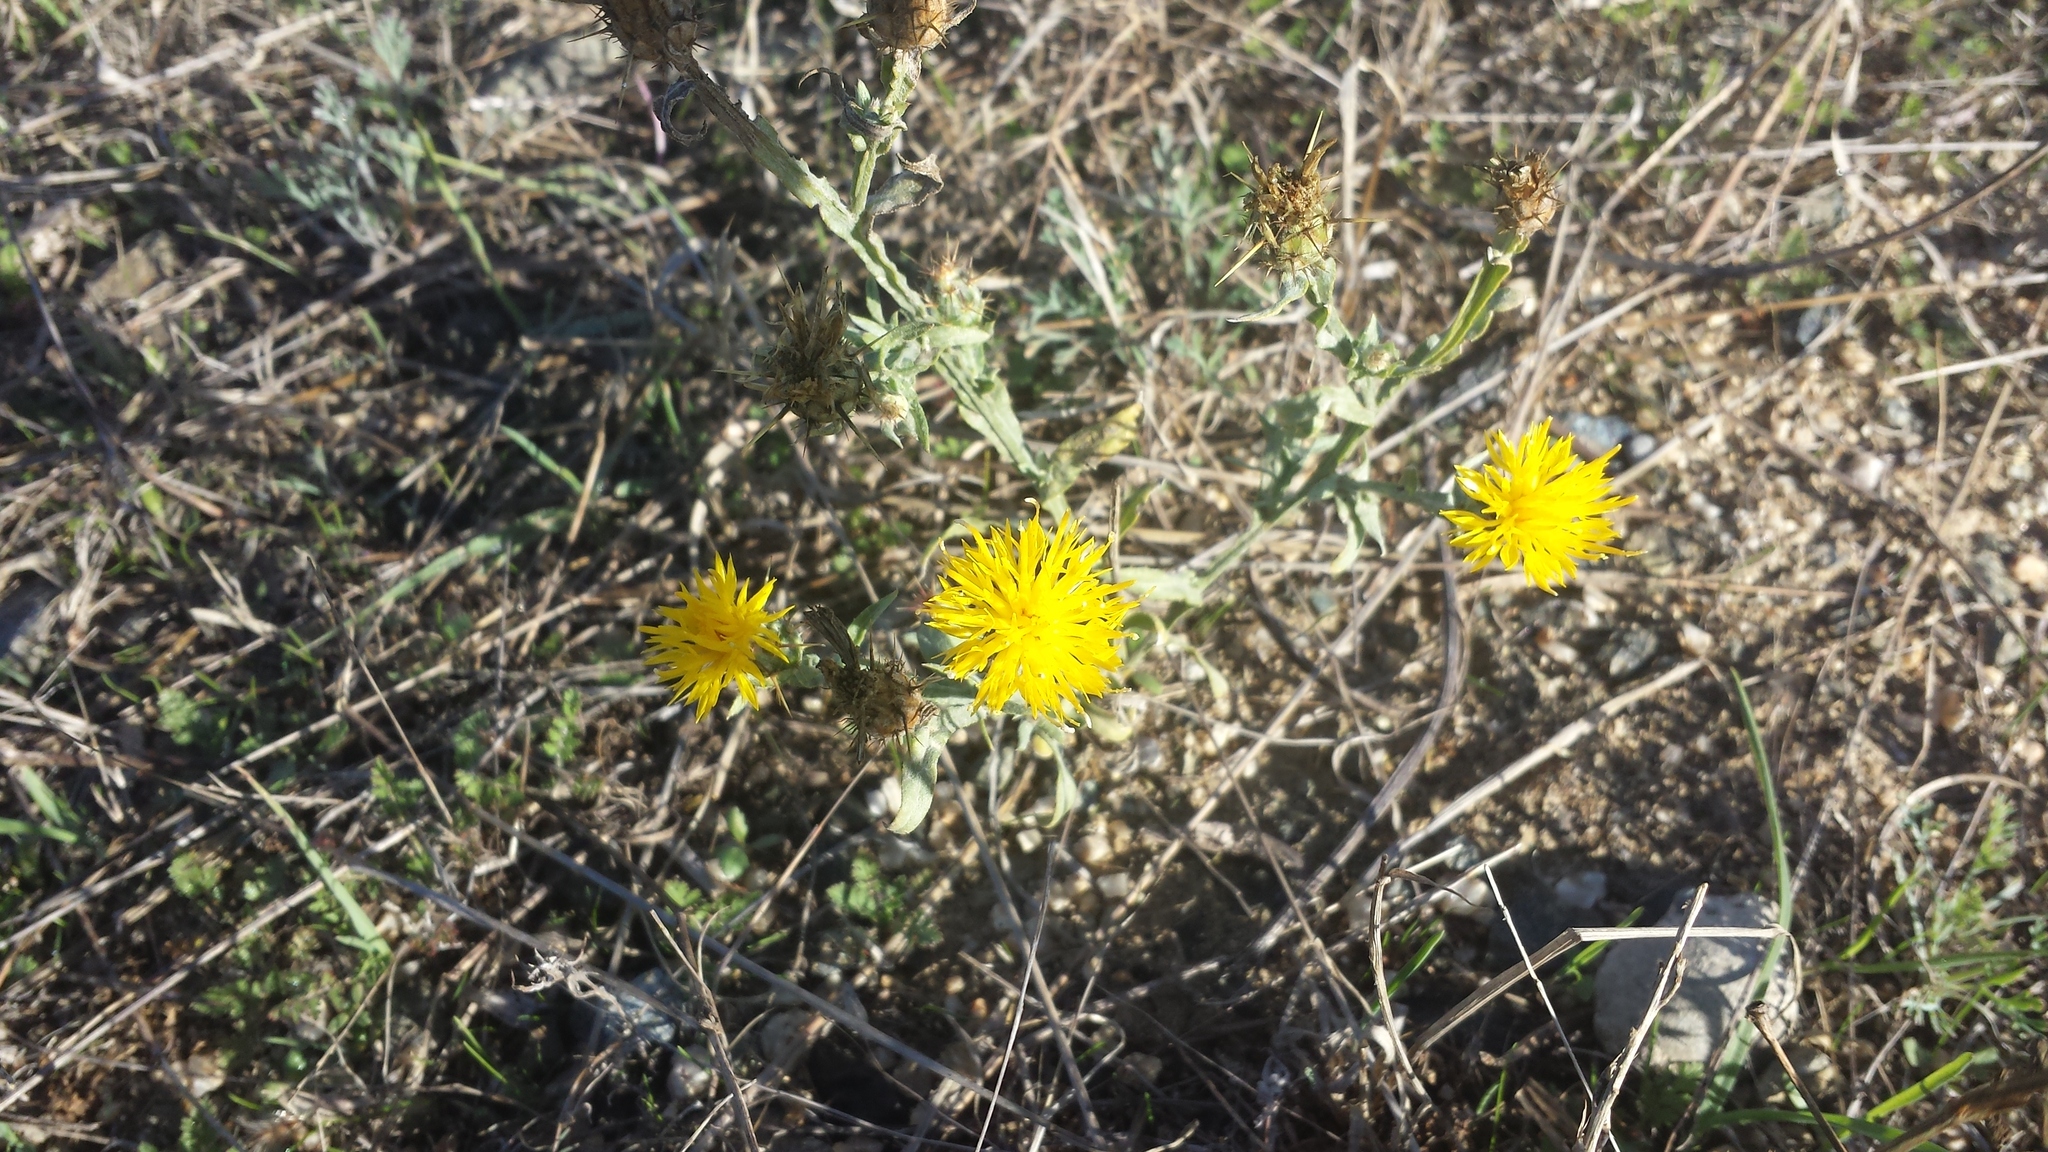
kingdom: Plantae
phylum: Tracheophyta
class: Magnoliopsida
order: Asterales
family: Asteraceae
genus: Centaurea
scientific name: Centaurea solstitialis
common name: Yellow star-thistle
